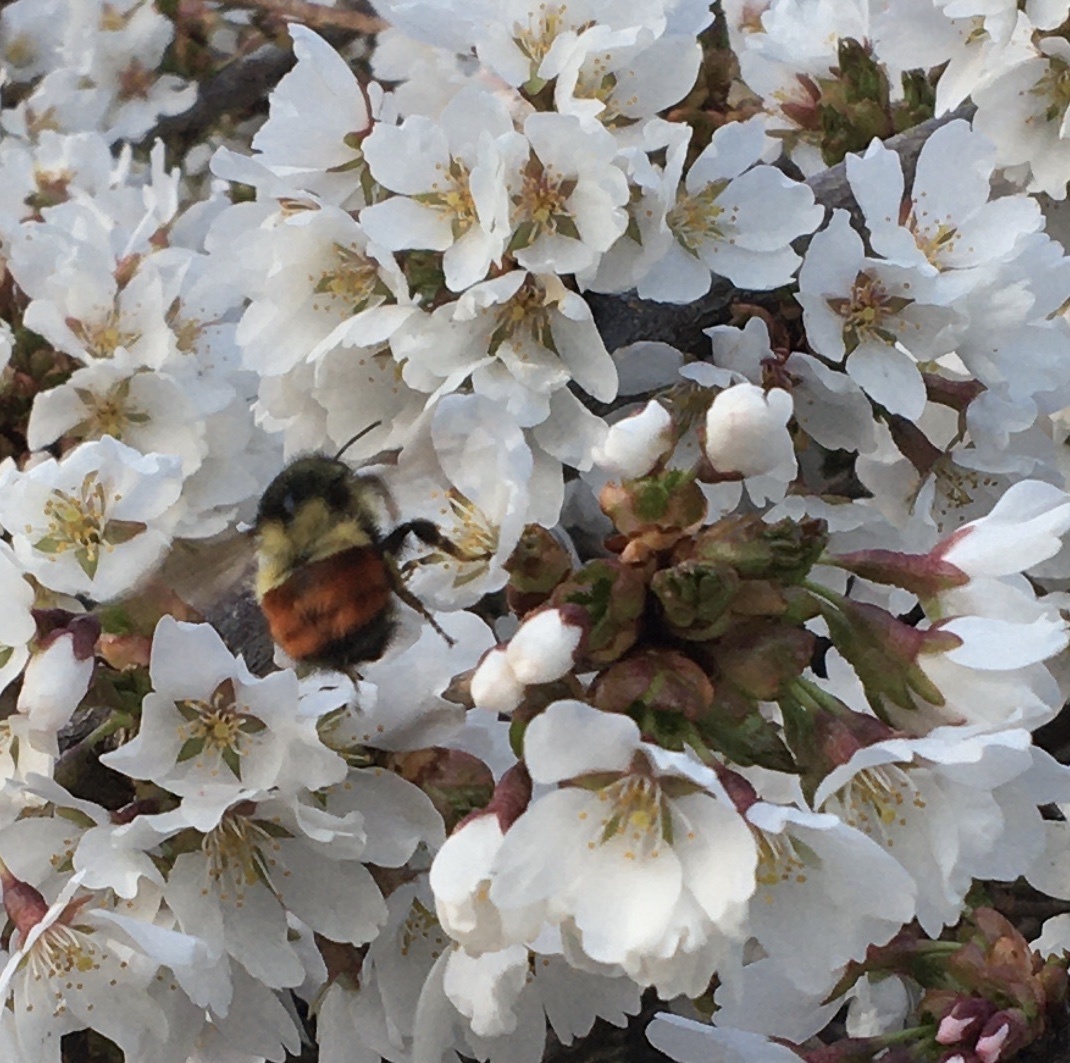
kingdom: Animalia
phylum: Arthropoda
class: Insecta
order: Hymenoptera
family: Apidae
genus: Bombus
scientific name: Bombus melanopygus
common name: Black tail bumble bee
